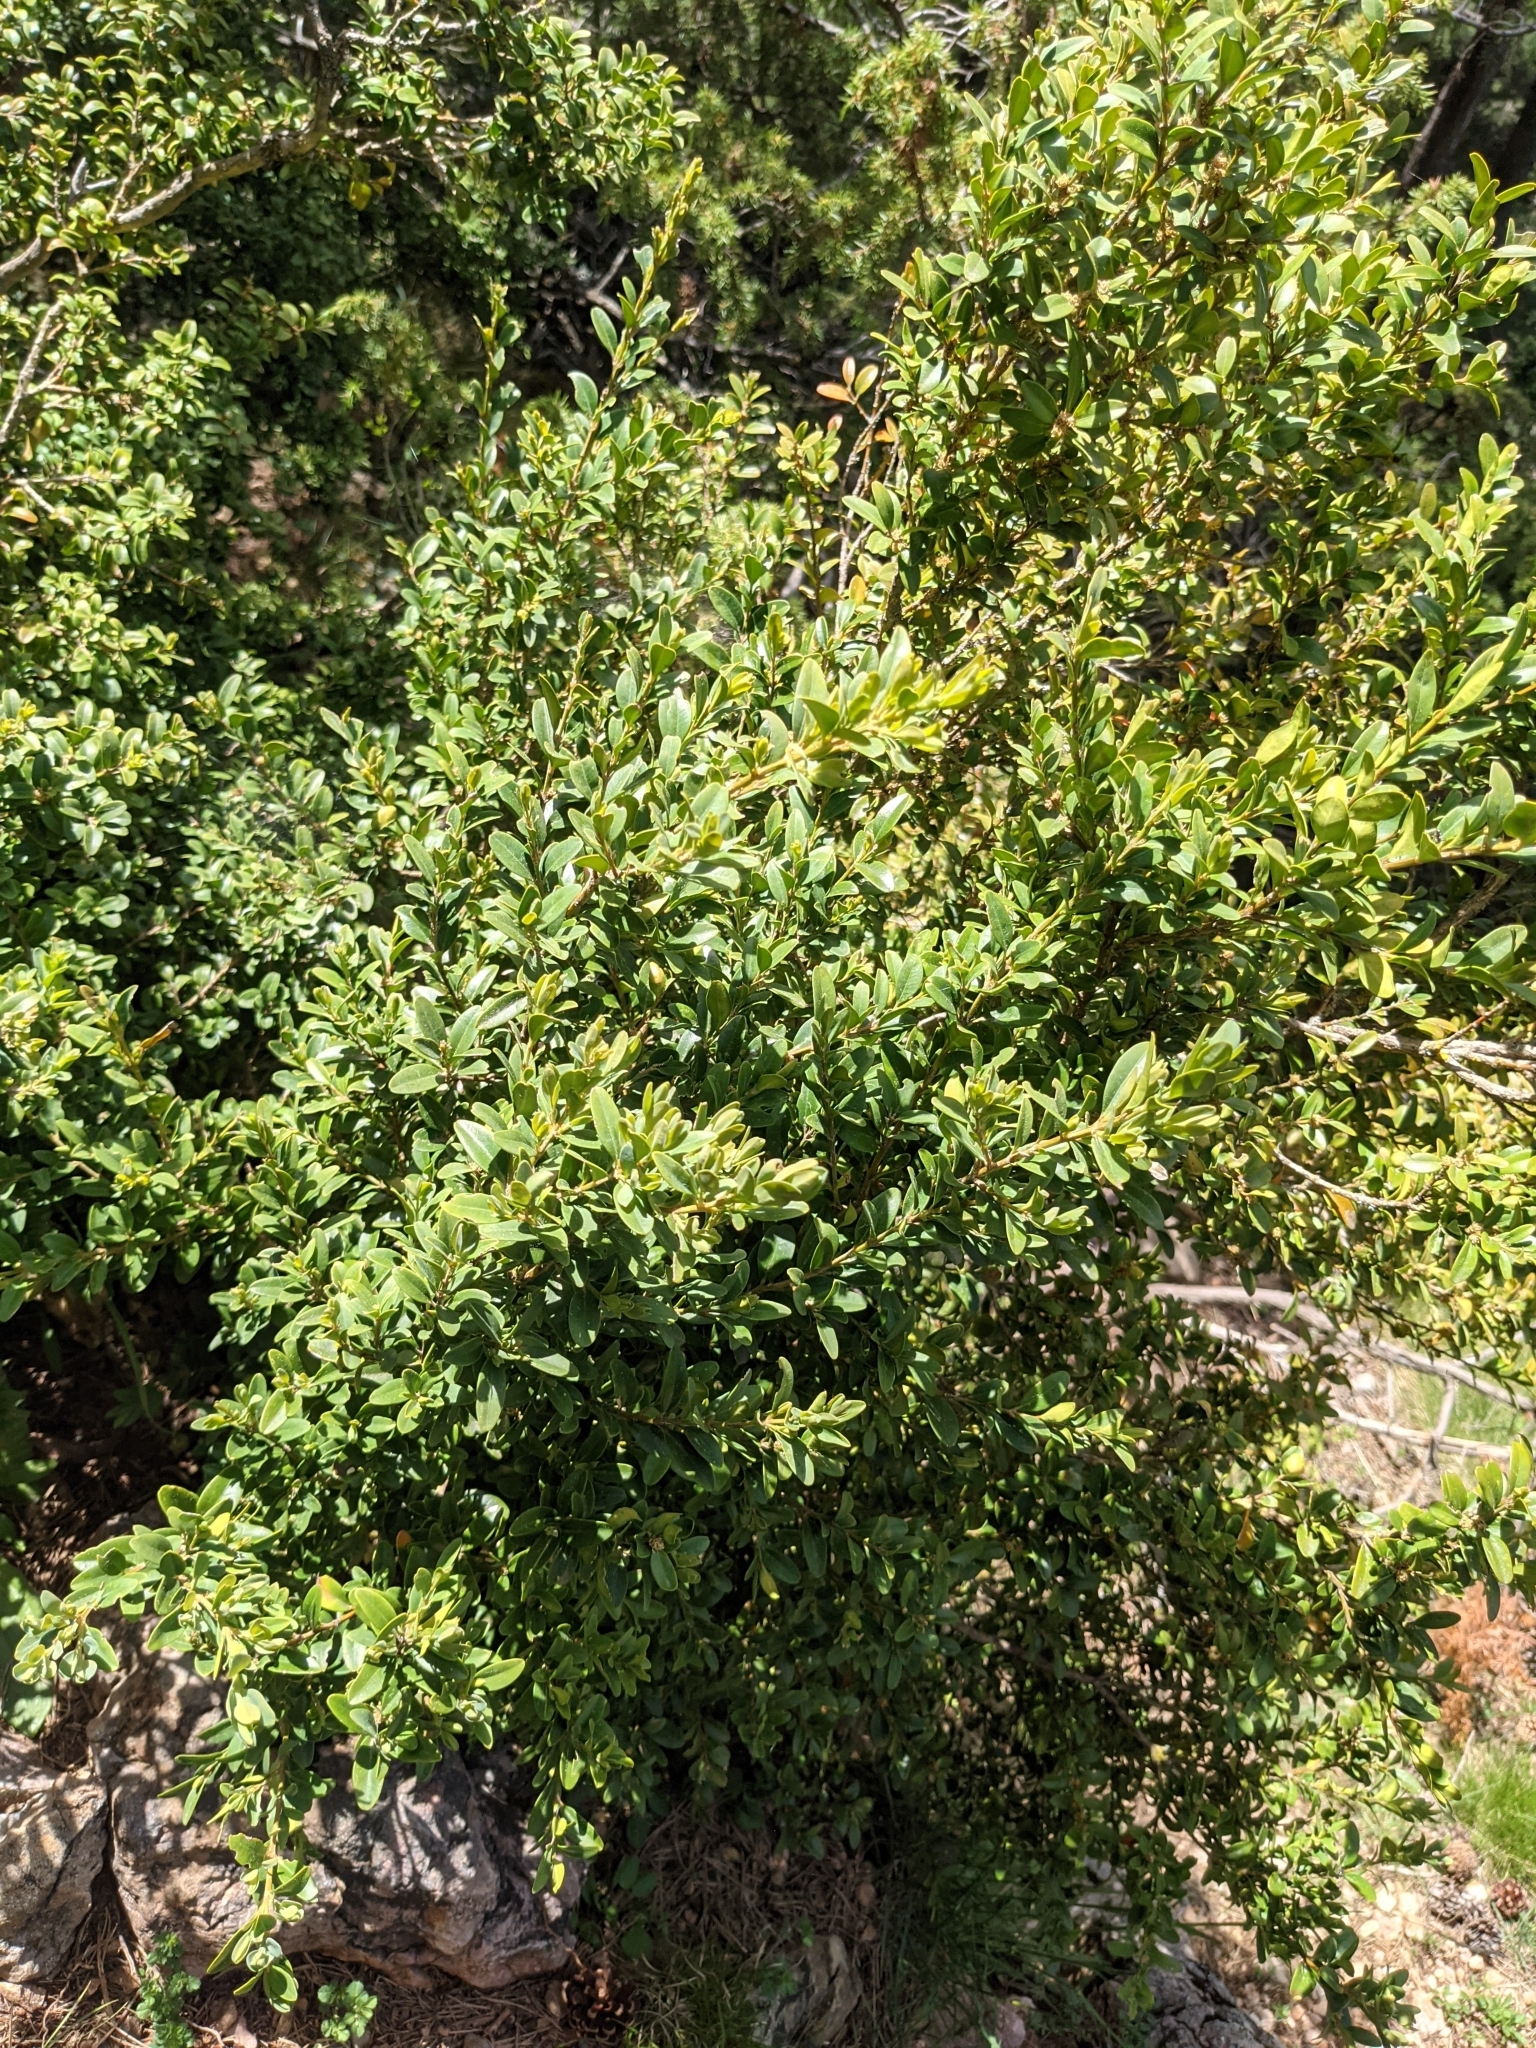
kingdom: Plantae
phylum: Tracheophyta
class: Magnoliopsida
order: Buxales
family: Buxaceae
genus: Buxus
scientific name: Buxus sempervirens
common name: Box
